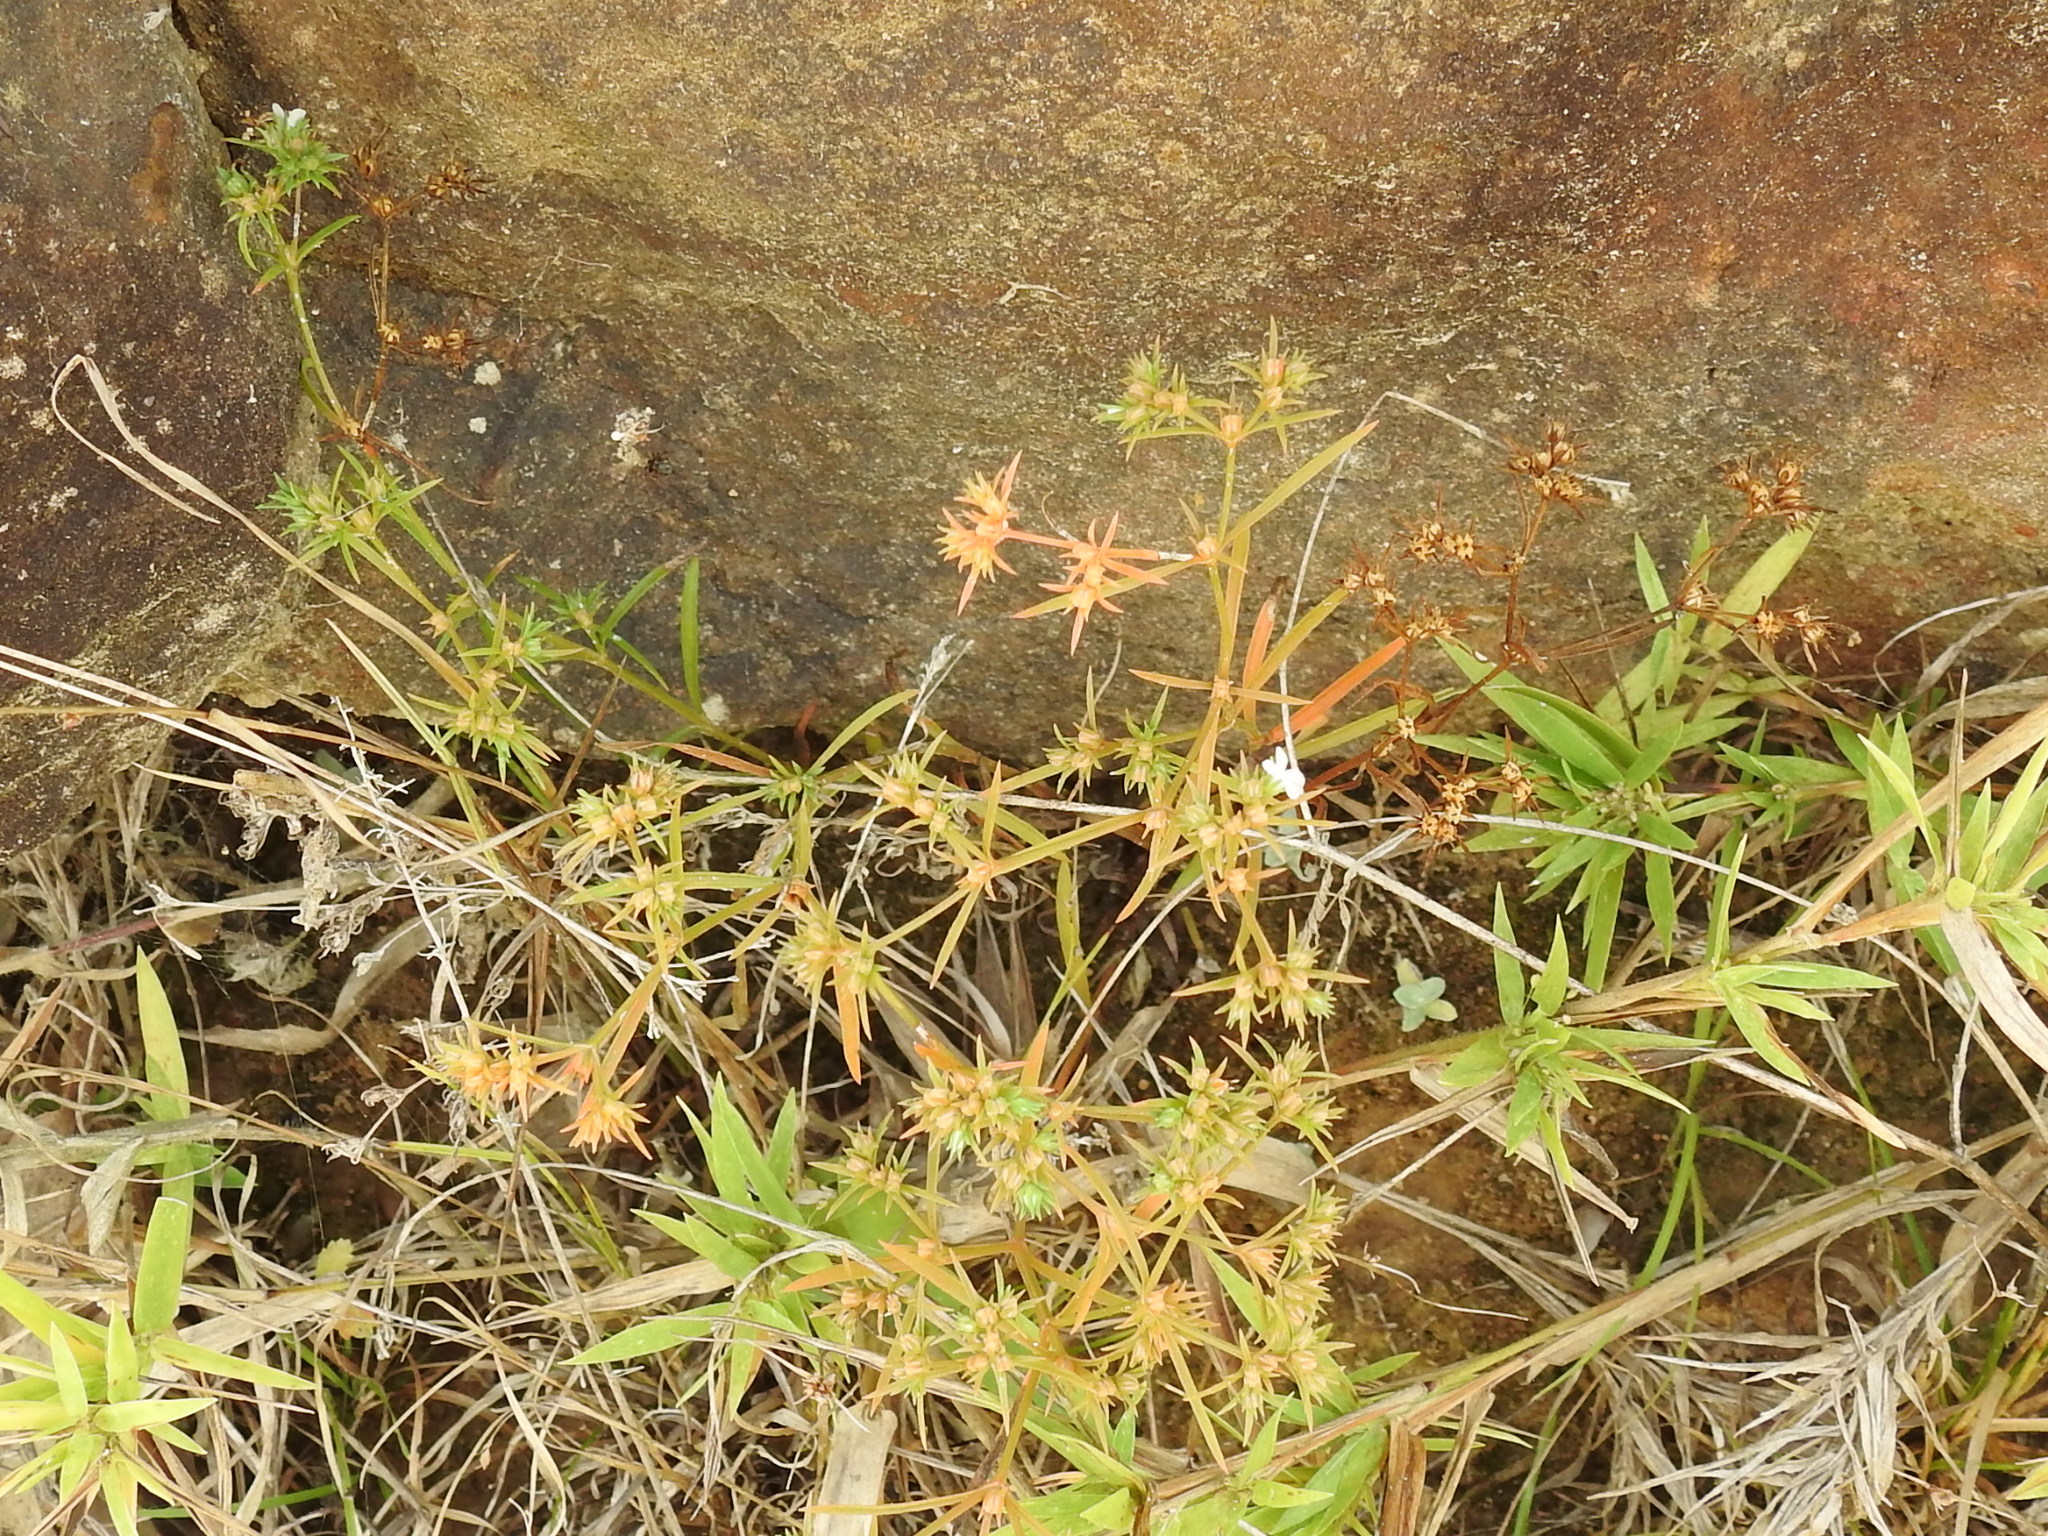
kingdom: Plantae
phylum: Tracheophyta
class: Magnoliopsida
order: Lamiales
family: Tetrachondraceae
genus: Polypremum
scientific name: Polypremum procumbens
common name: Juniper-leaf
